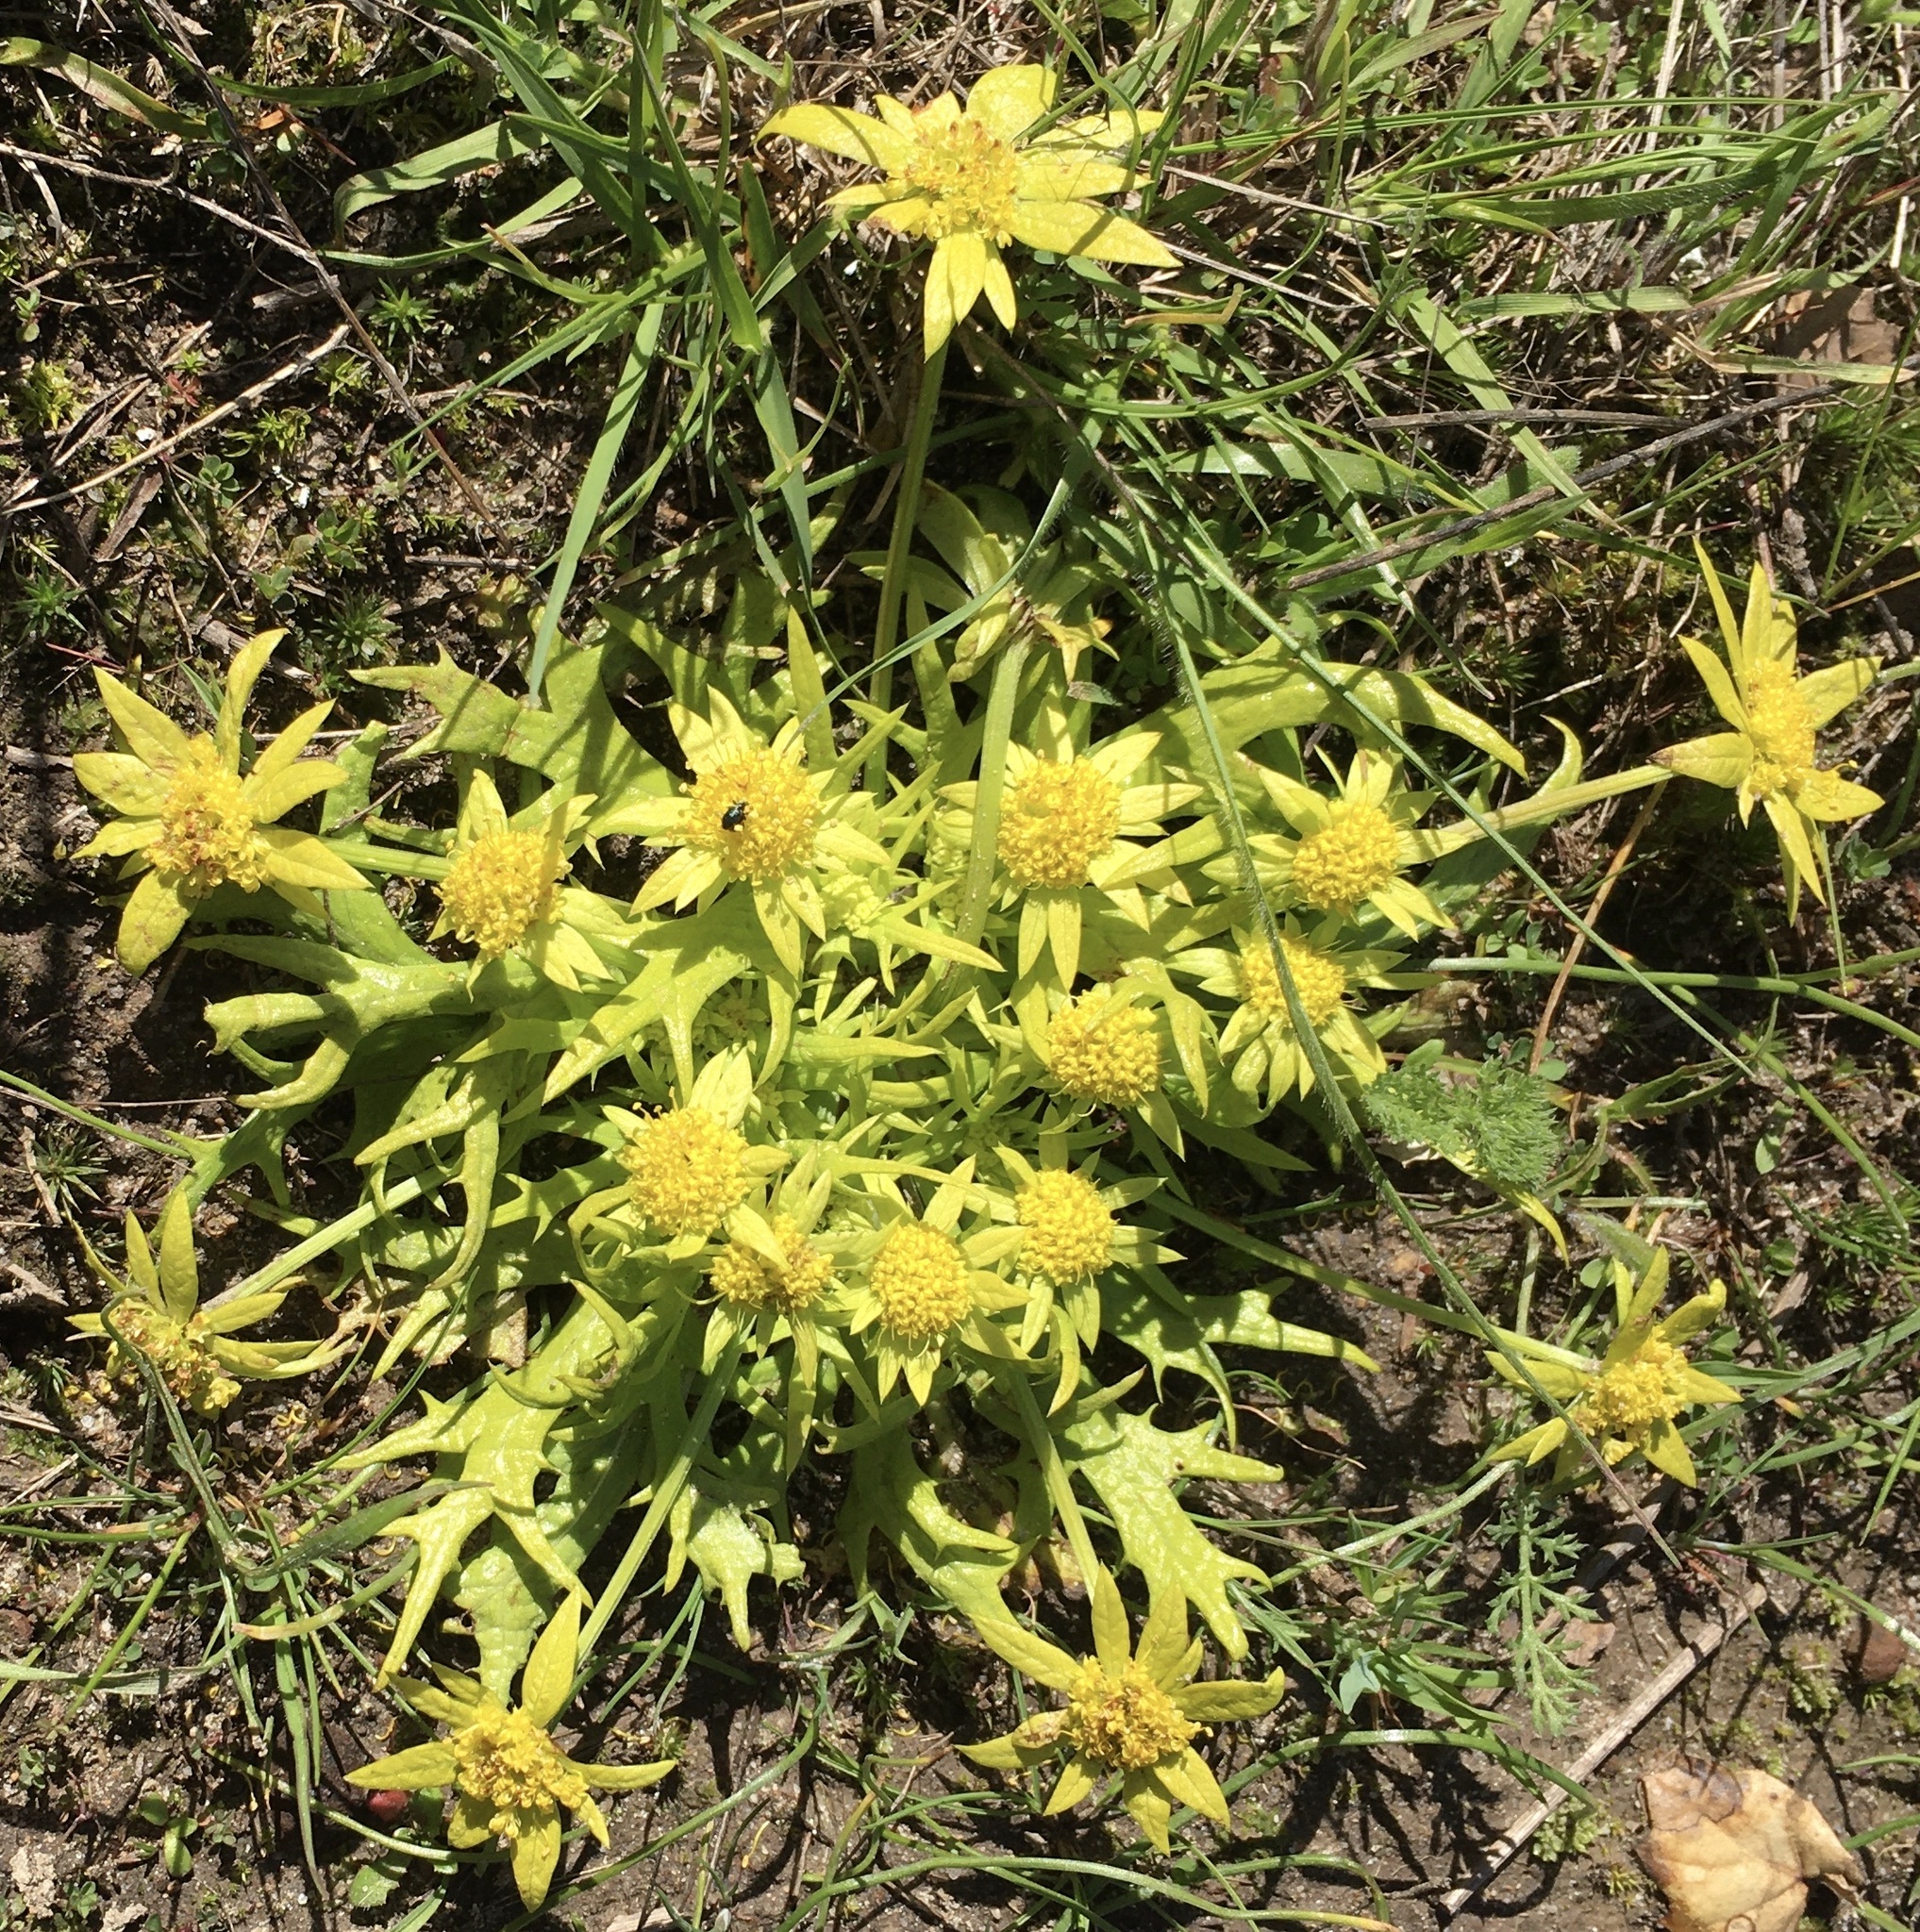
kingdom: Plantae
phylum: Tracheophyta
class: Magnoliopsida
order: Apiales
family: Apiaceae
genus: Sanicula
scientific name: Sanicula arctopoides
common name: Footsteps-of-spring
